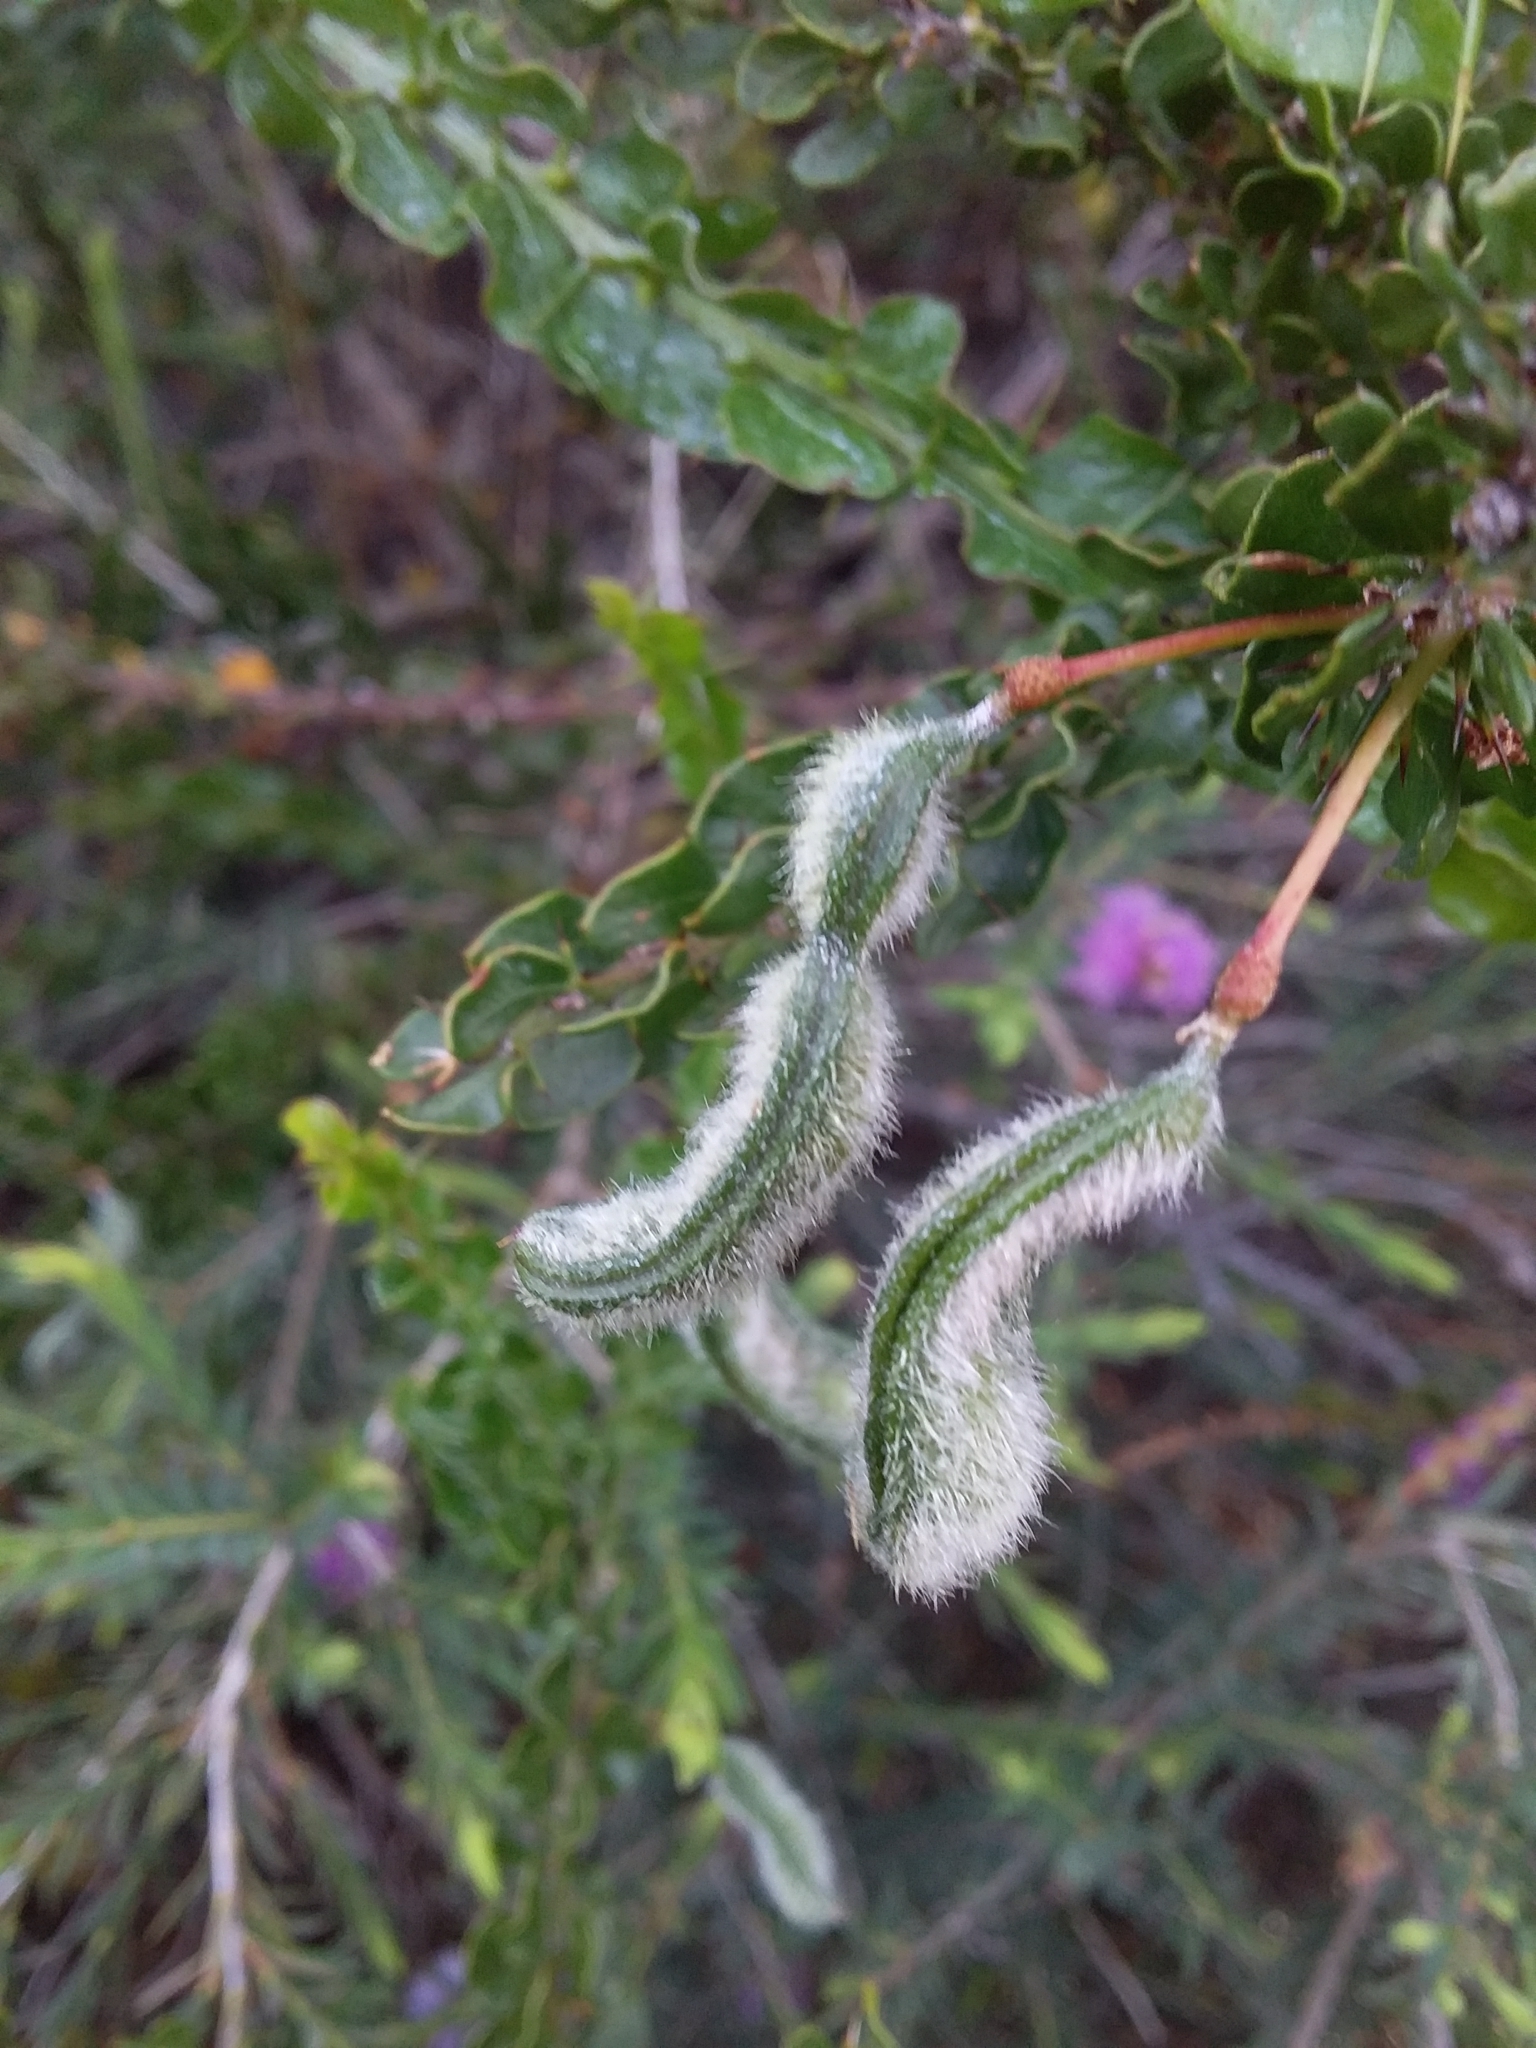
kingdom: Plantae
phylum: Tracheophyta
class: Magnoliopsida
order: Fabales
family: Fabaceae
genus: Acacia
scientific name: Acacia paradoxa
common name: Paradox acacia
